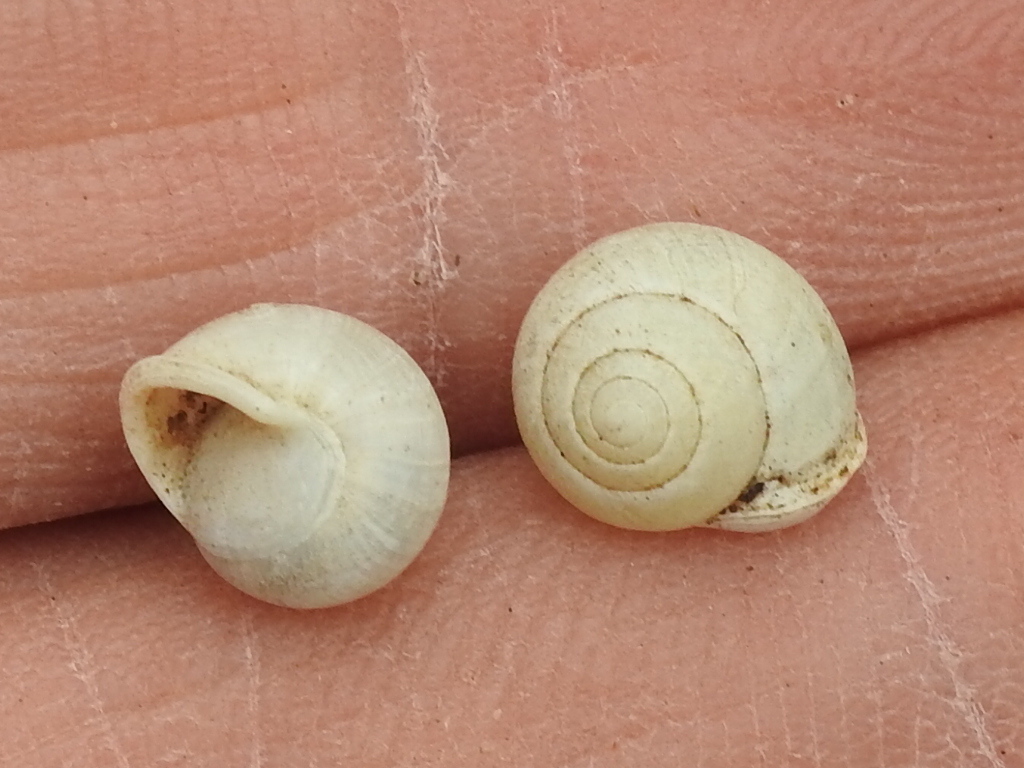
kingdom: Animalia
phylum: Mollusca
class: Gastropoda
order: Cycloneritida
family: Helicinidae
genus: Helicina
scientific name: Helicina orbiculata
